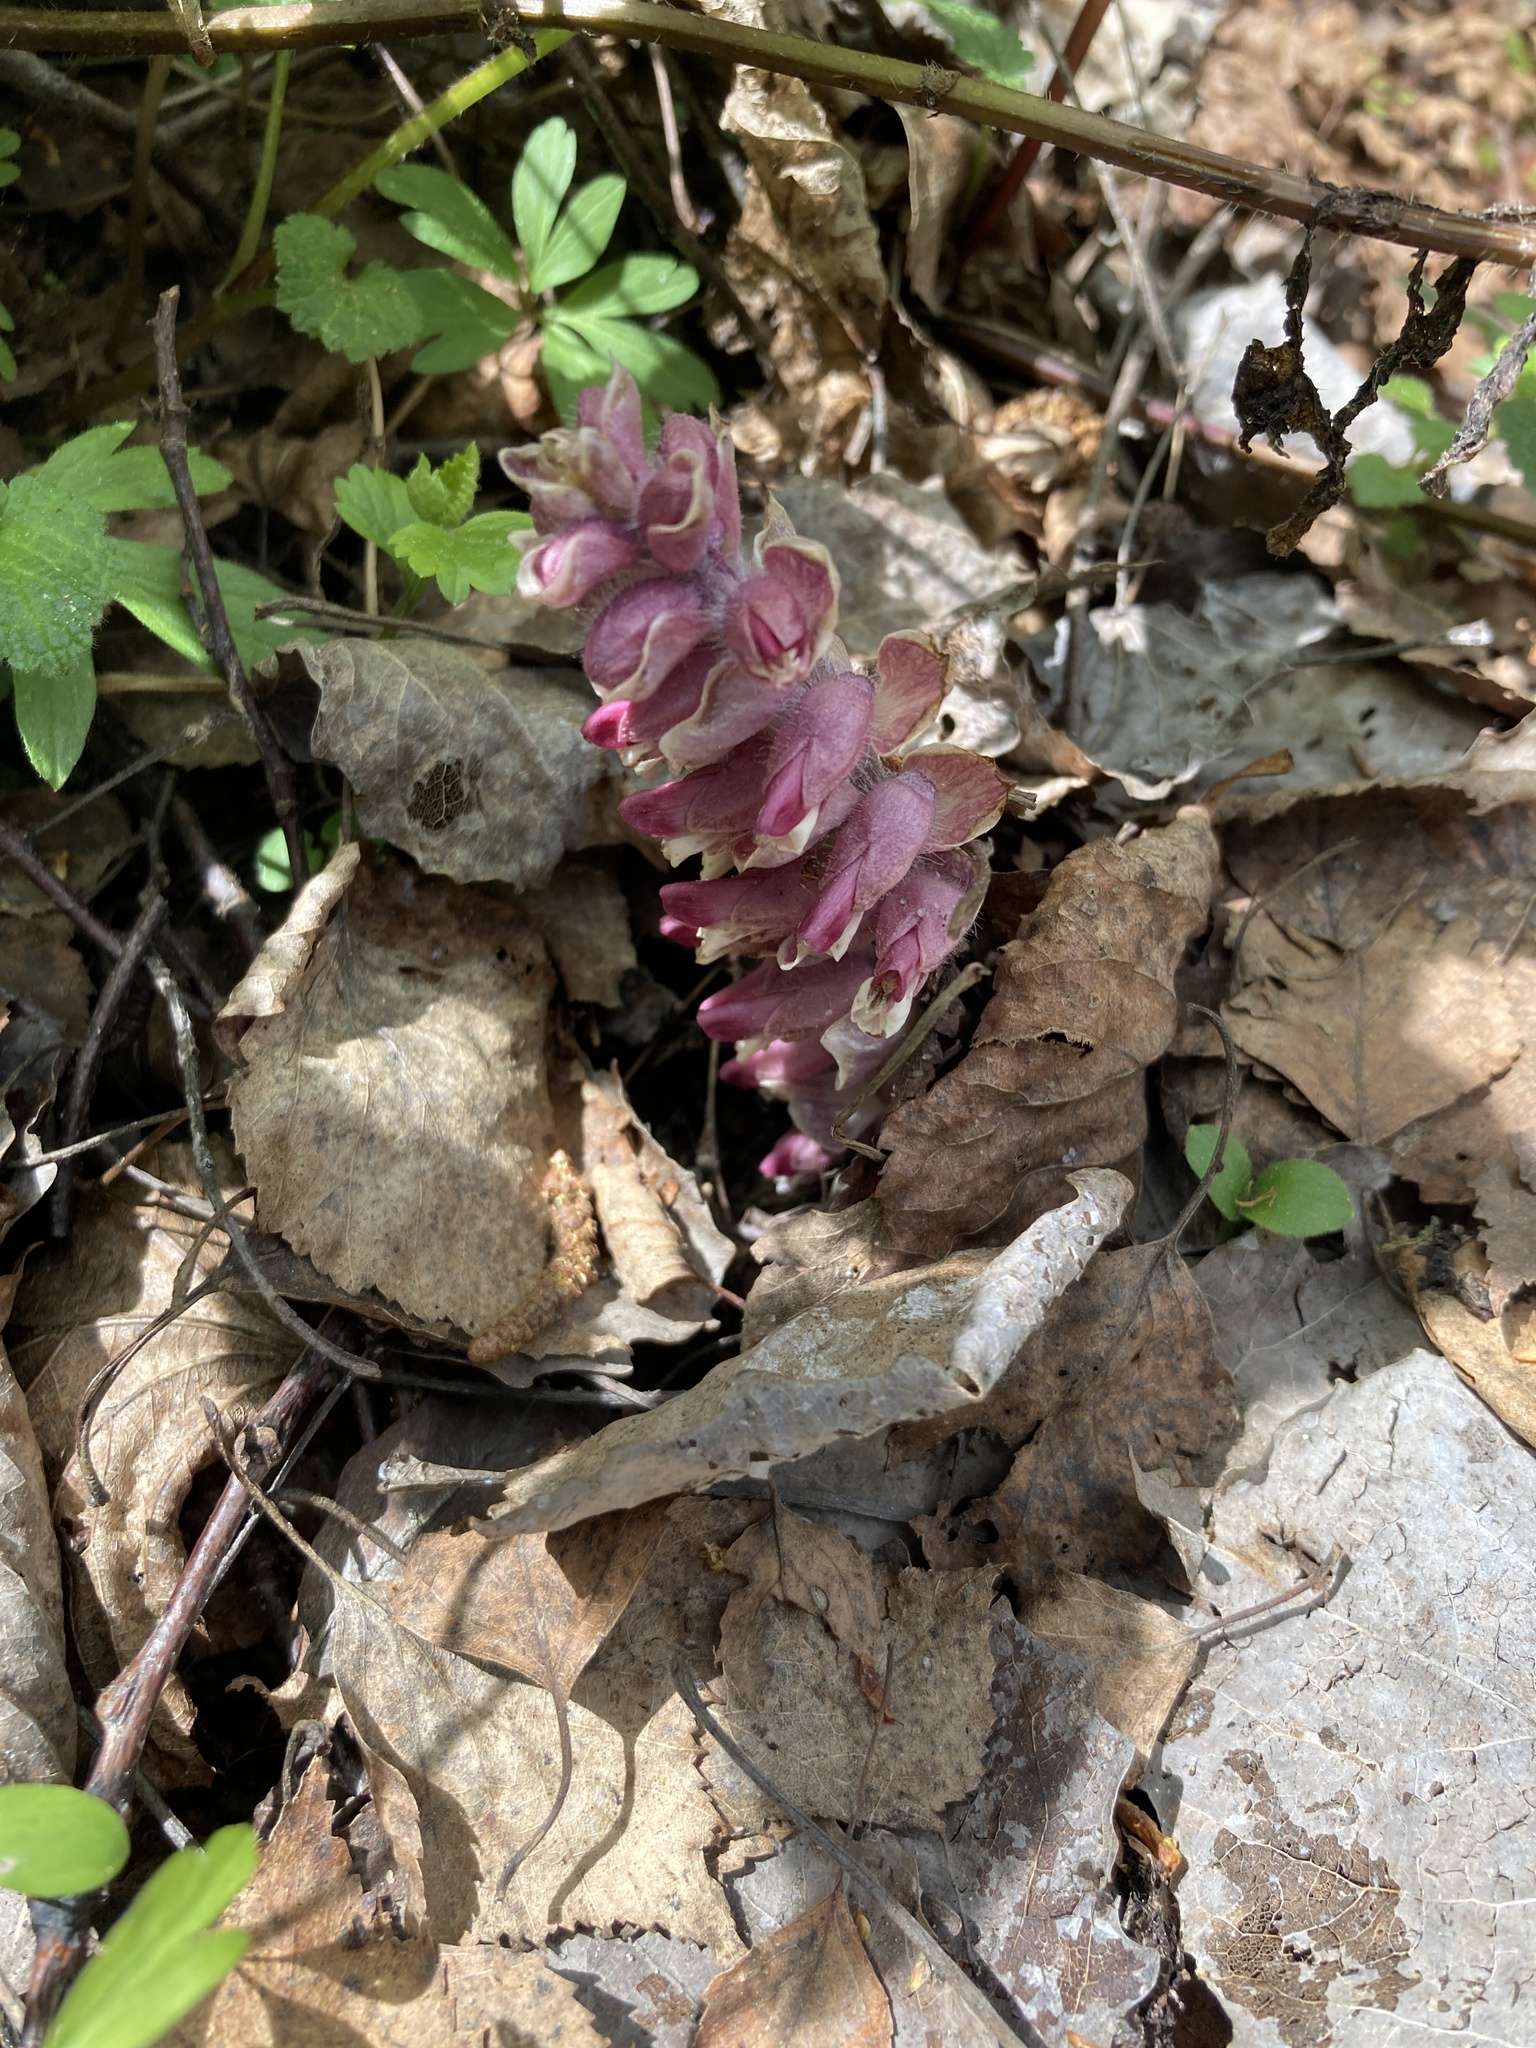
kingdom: Plantae
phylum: Tracheophyta
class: Magnoliopsida
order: Lamiales
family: Orobanchaceae
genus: Lathraea
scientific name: Lathraea squamaria
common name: Toothwort
